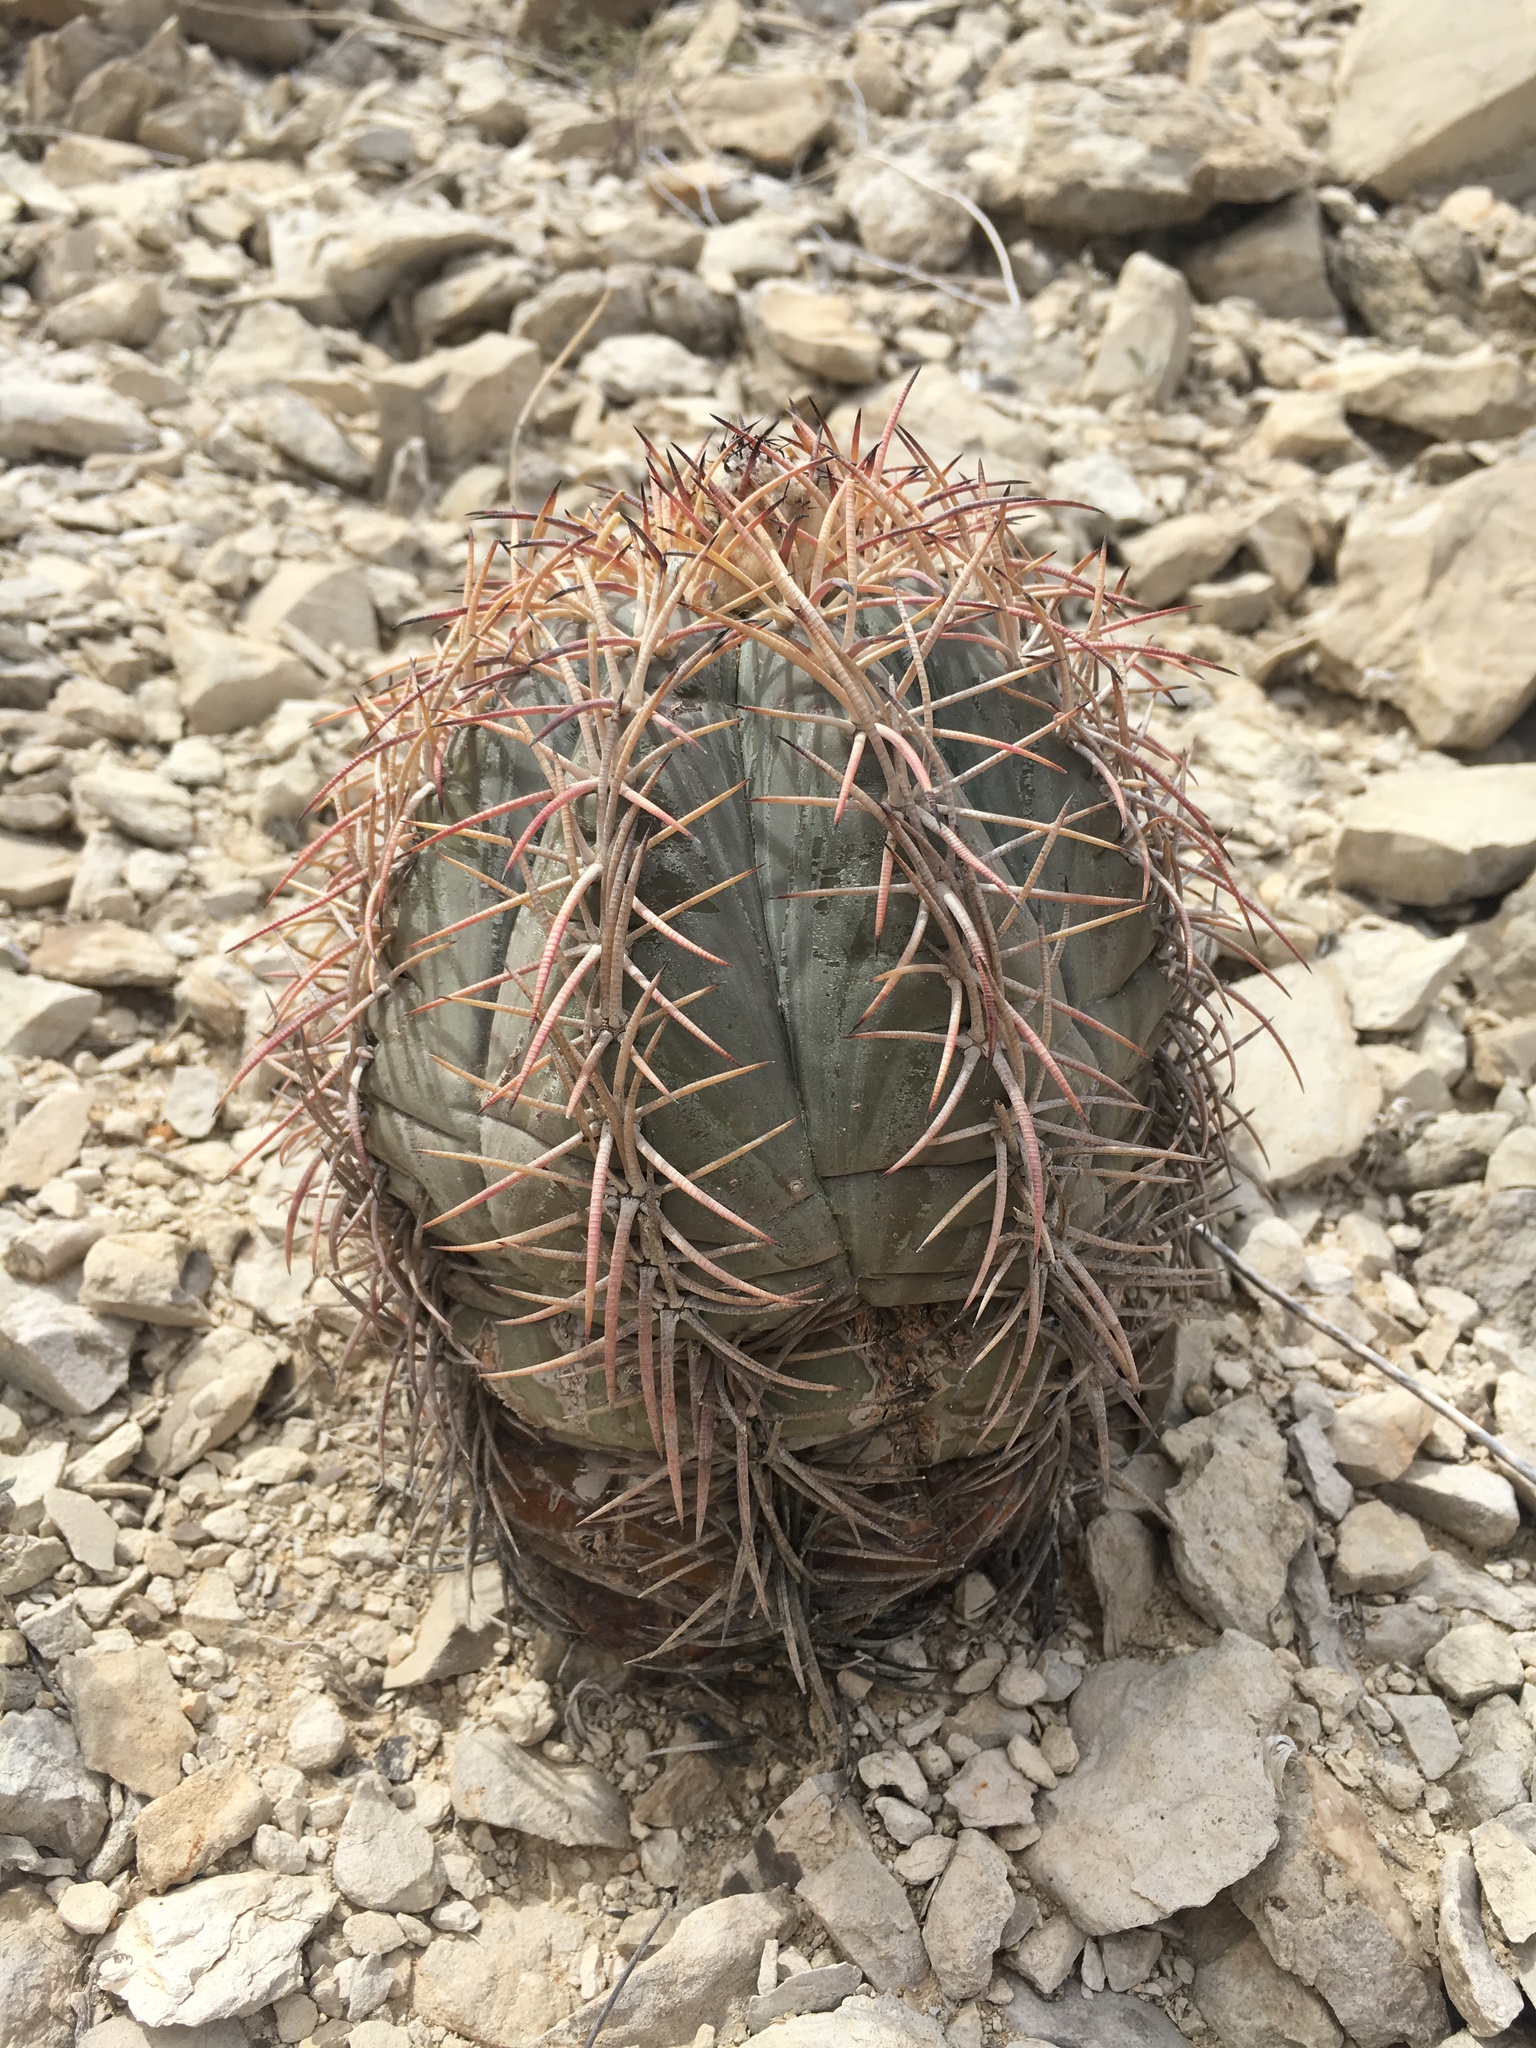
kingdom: Plantae
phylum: Tracheophyta
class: Magnoliopsida
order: Caryophyllales
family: Cactaceae
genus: Echinocactus
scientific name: Echinocactus horizonthalonius
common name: Devilshead
